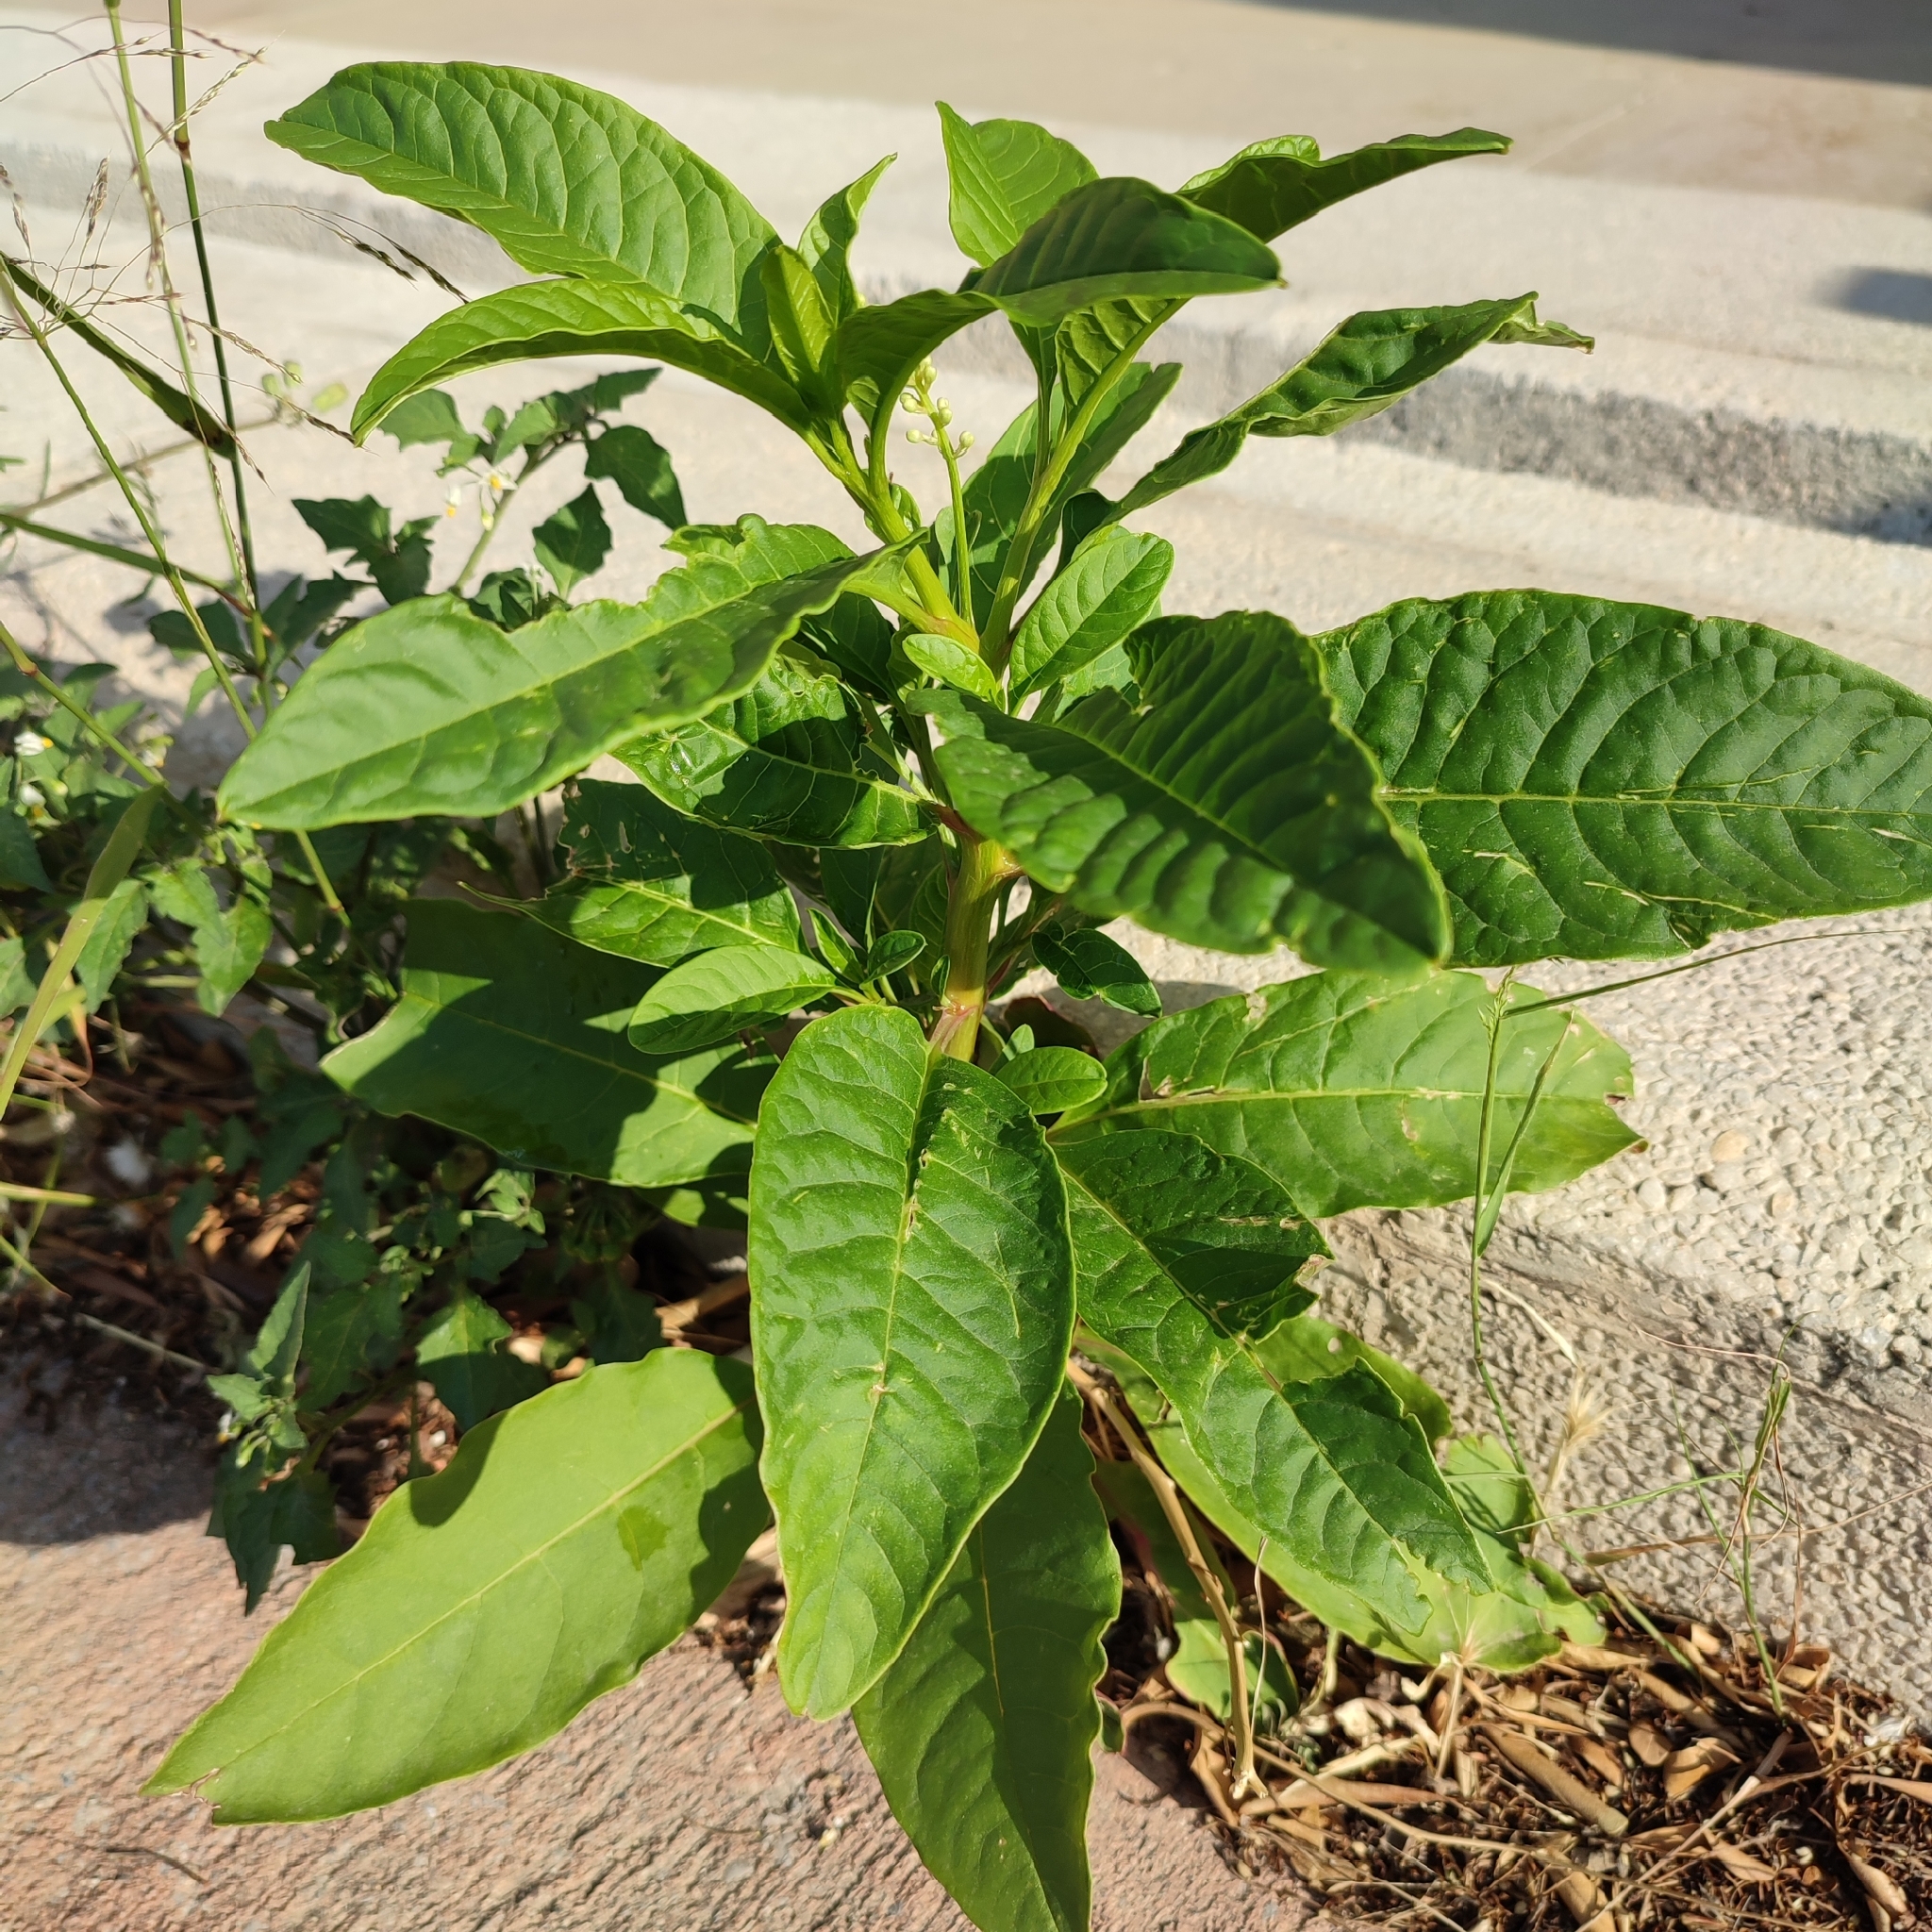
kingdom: Plantae
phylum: Tracheophyta
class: Magnoliopsida
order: Caryophyllales
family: Phytolaccaceae
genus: Phytolacca
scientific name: Phytolacca americana
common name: American pokeweed
